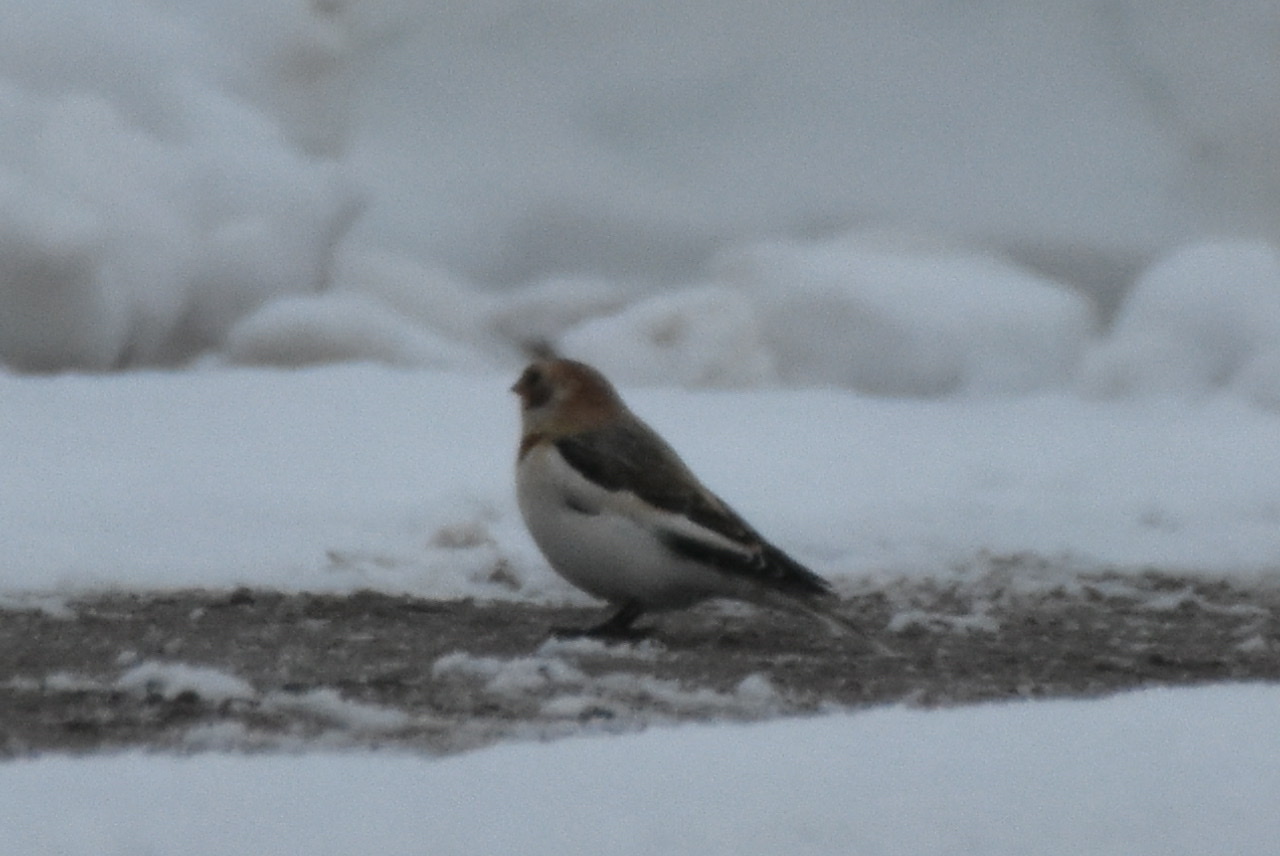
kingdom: Animalia
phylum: Chordata
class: Aves
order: Passeriformes
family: Calcariidae
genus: Plectrophenax
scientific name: Plectrophenax nivalis
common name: Snow bunting
